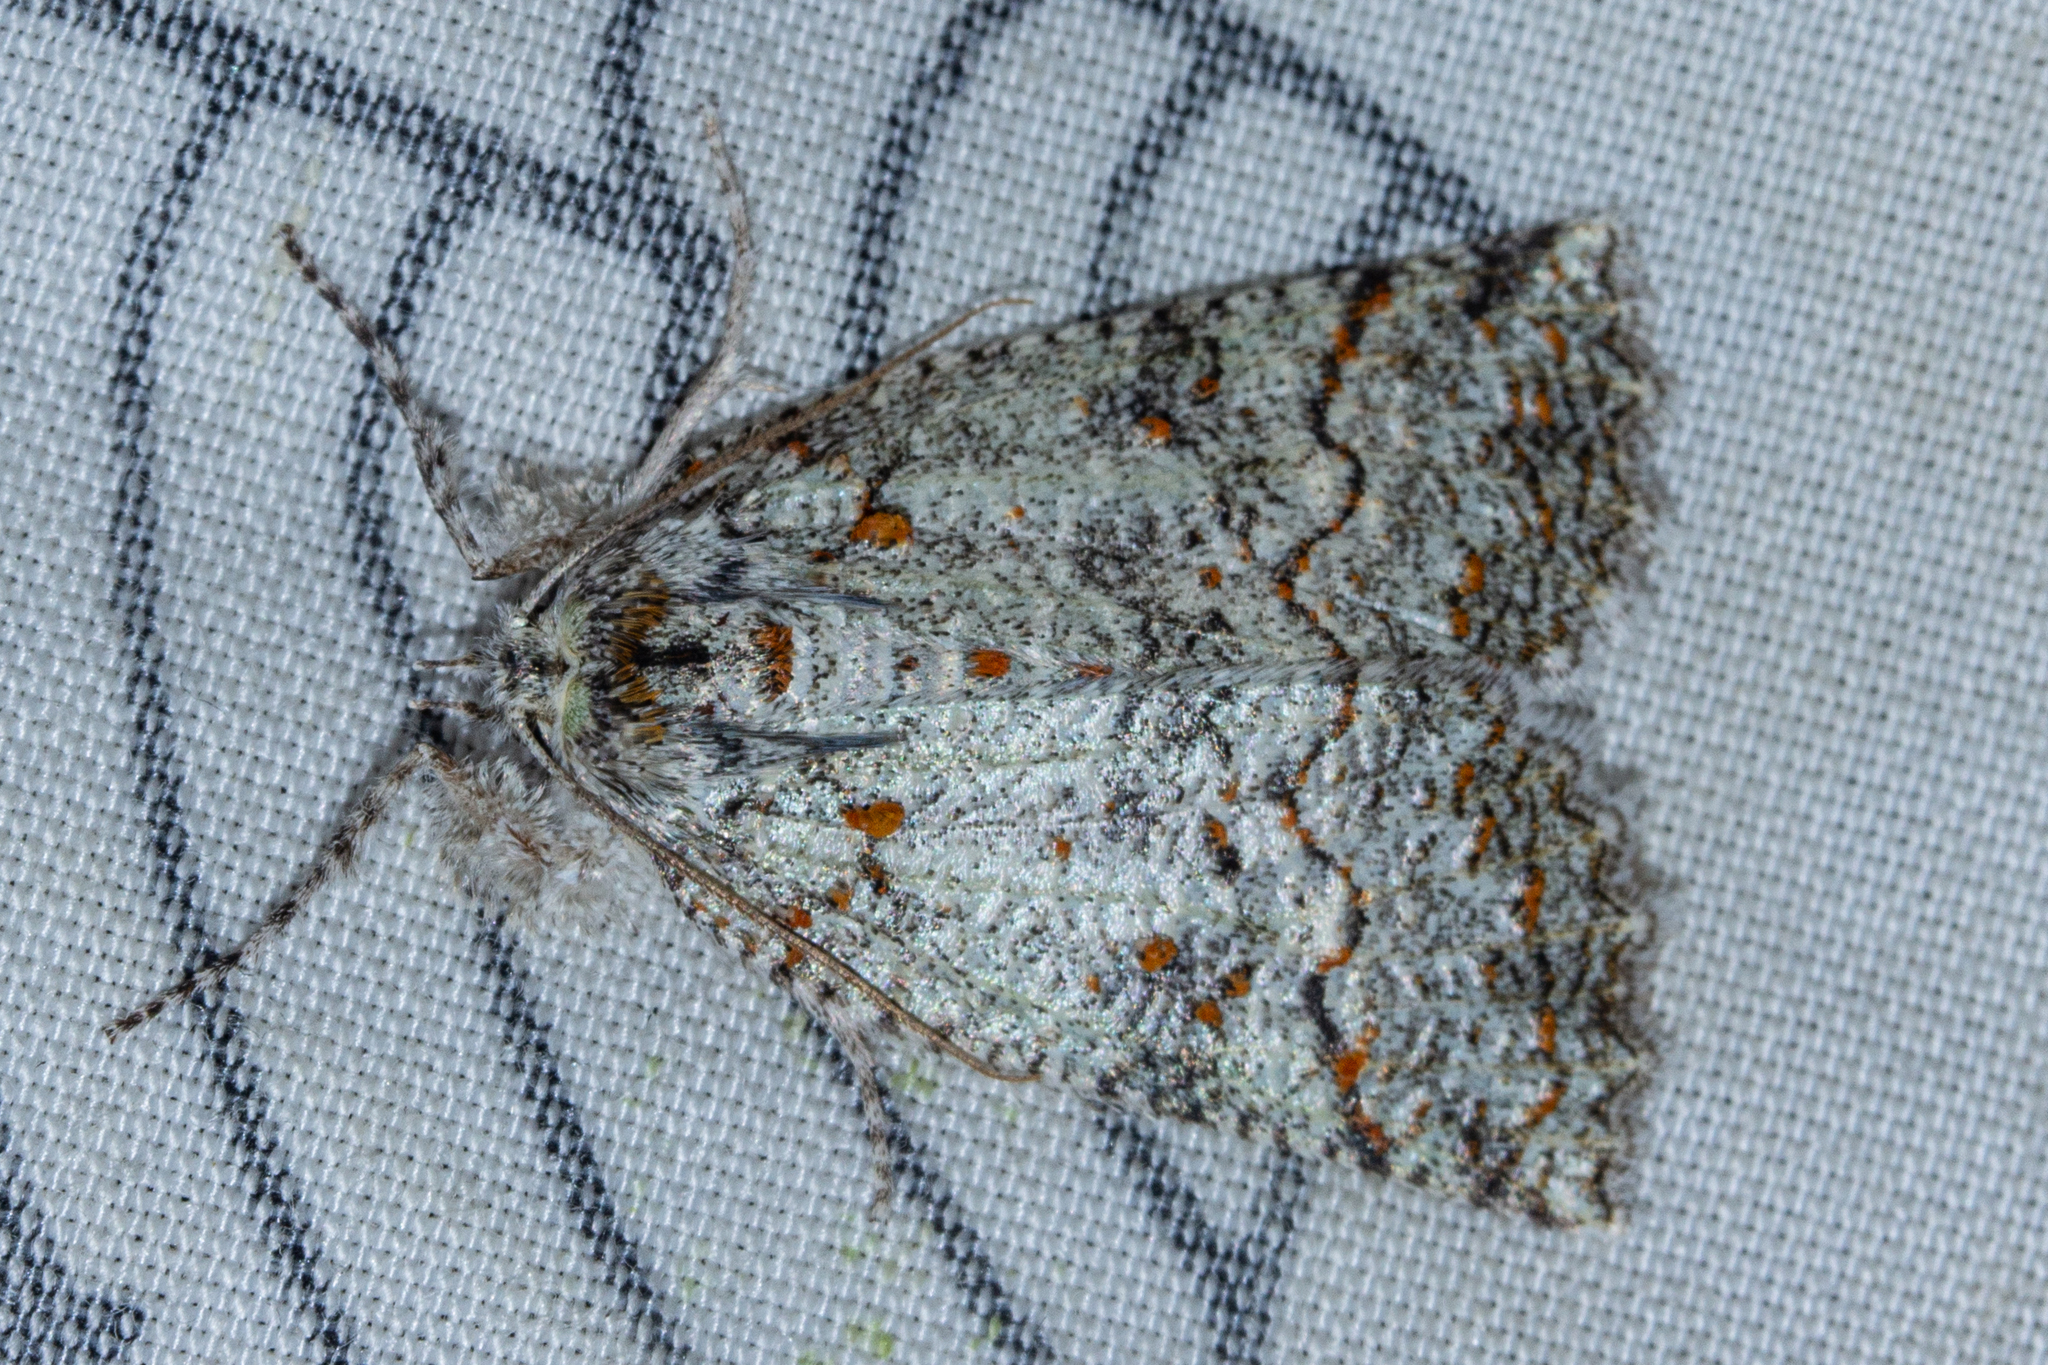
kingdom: Animalia
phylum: Arthropoda
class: Insecta
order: Lepidoptera
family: Geometridae
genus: Declana
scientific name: Declana floccosa
